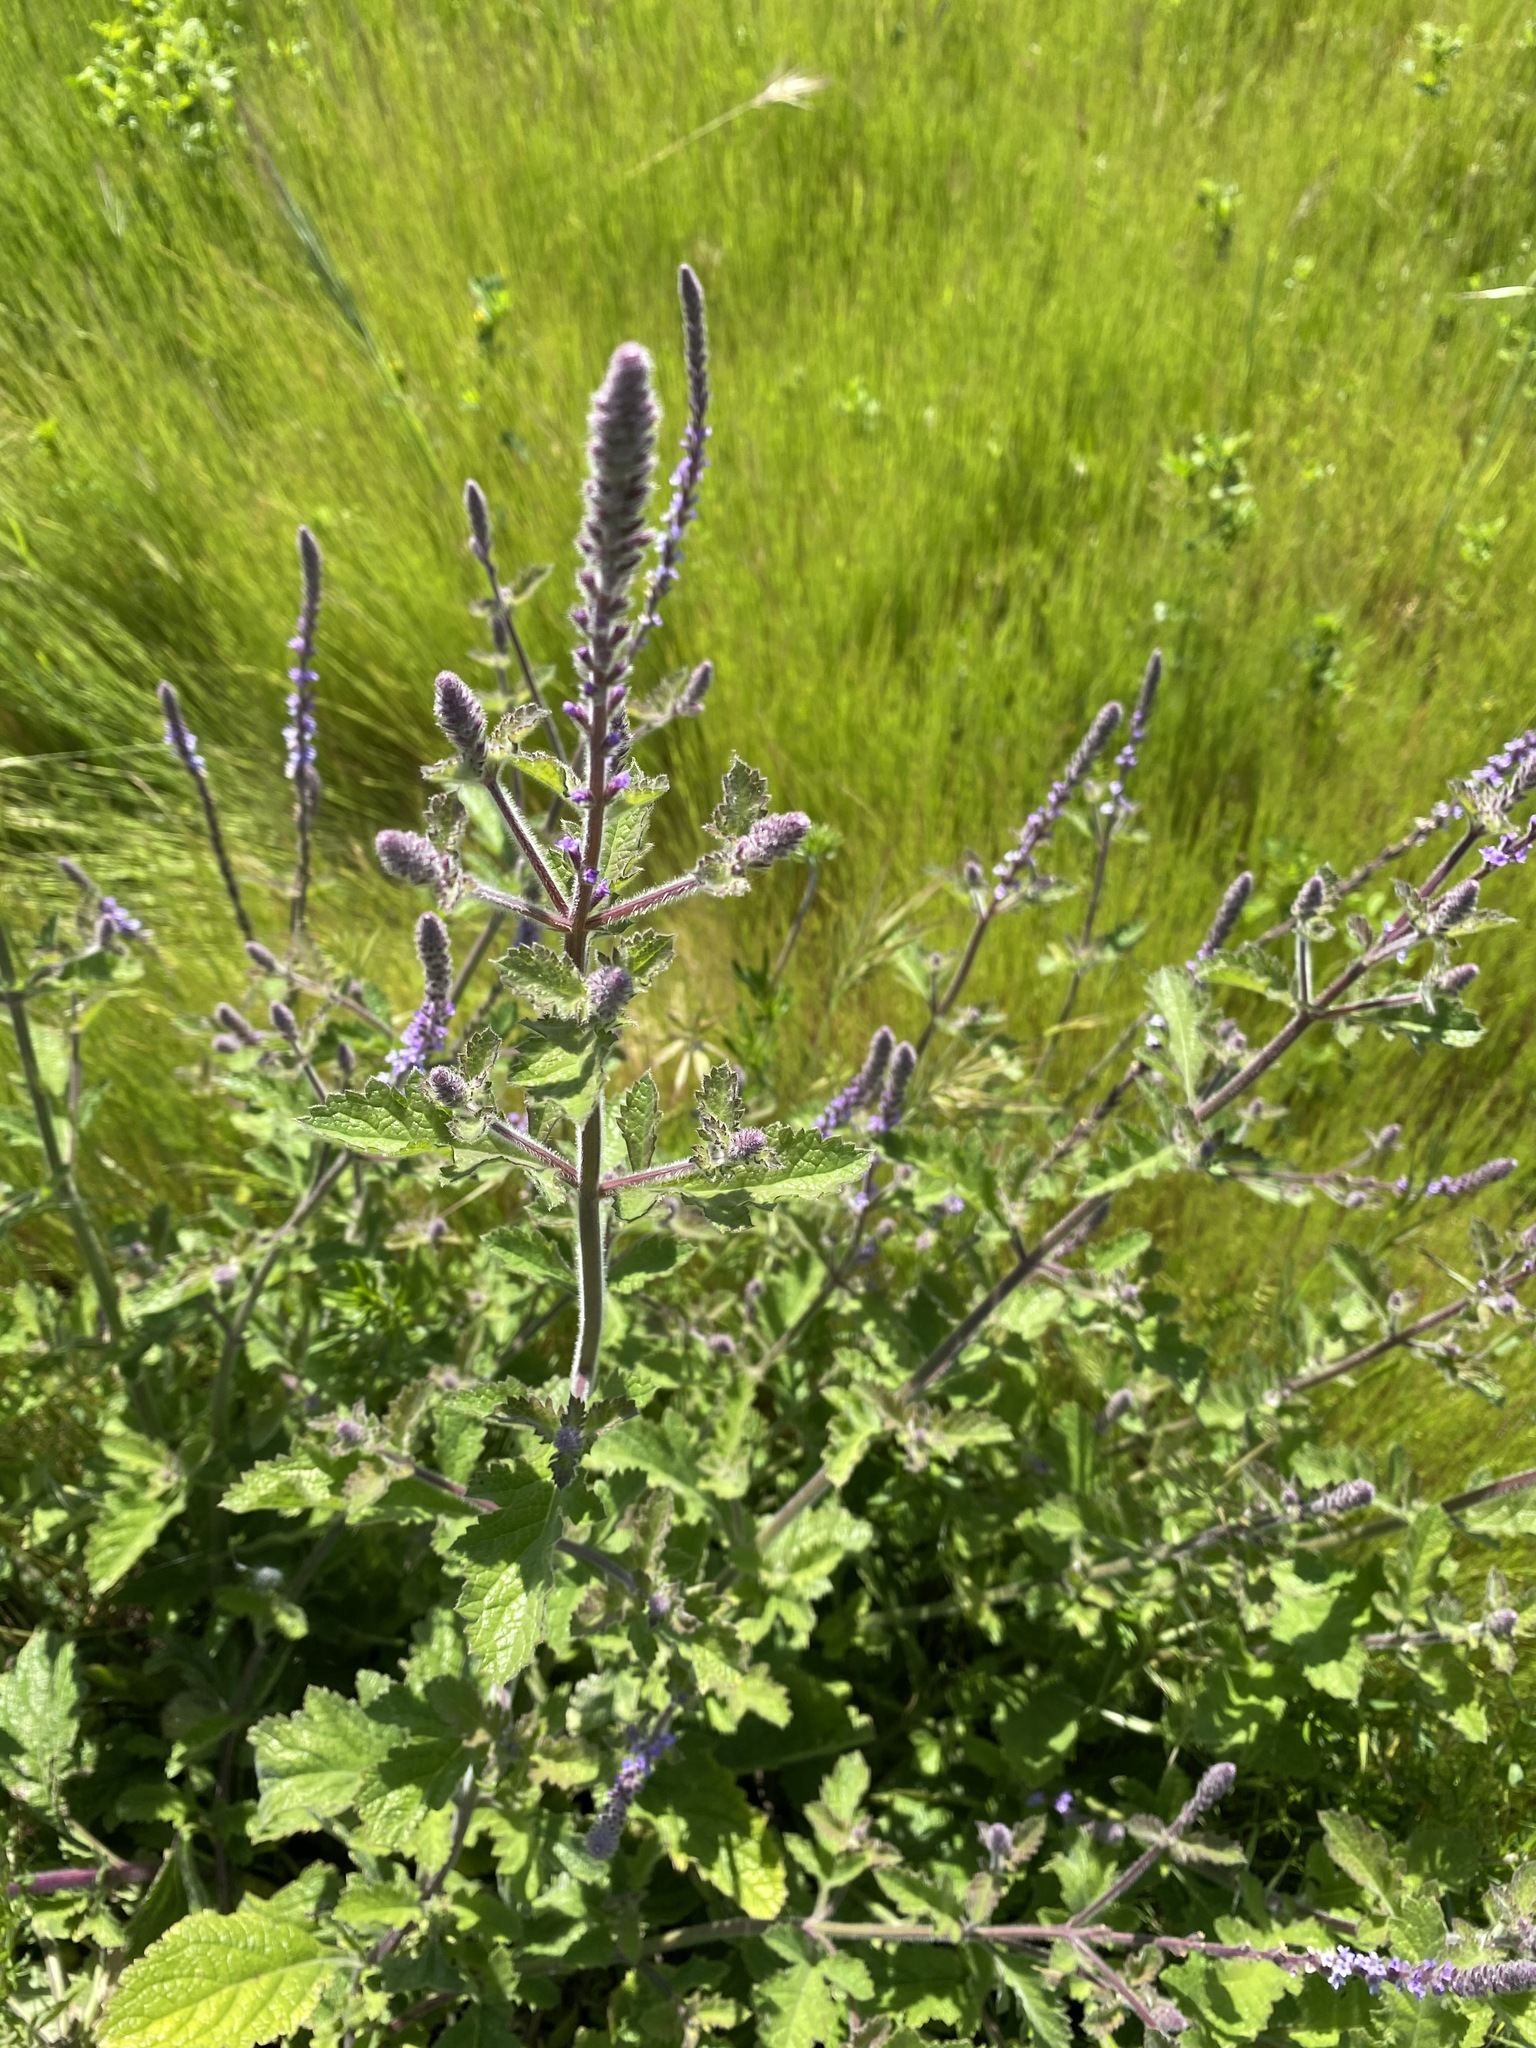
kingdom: Plantae
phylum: Tracheophyta
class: Magnoliopsida
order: Lamiales
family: Verbenaceae
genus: Verbena
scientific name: Verbena lasiostachys
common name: Vervain
